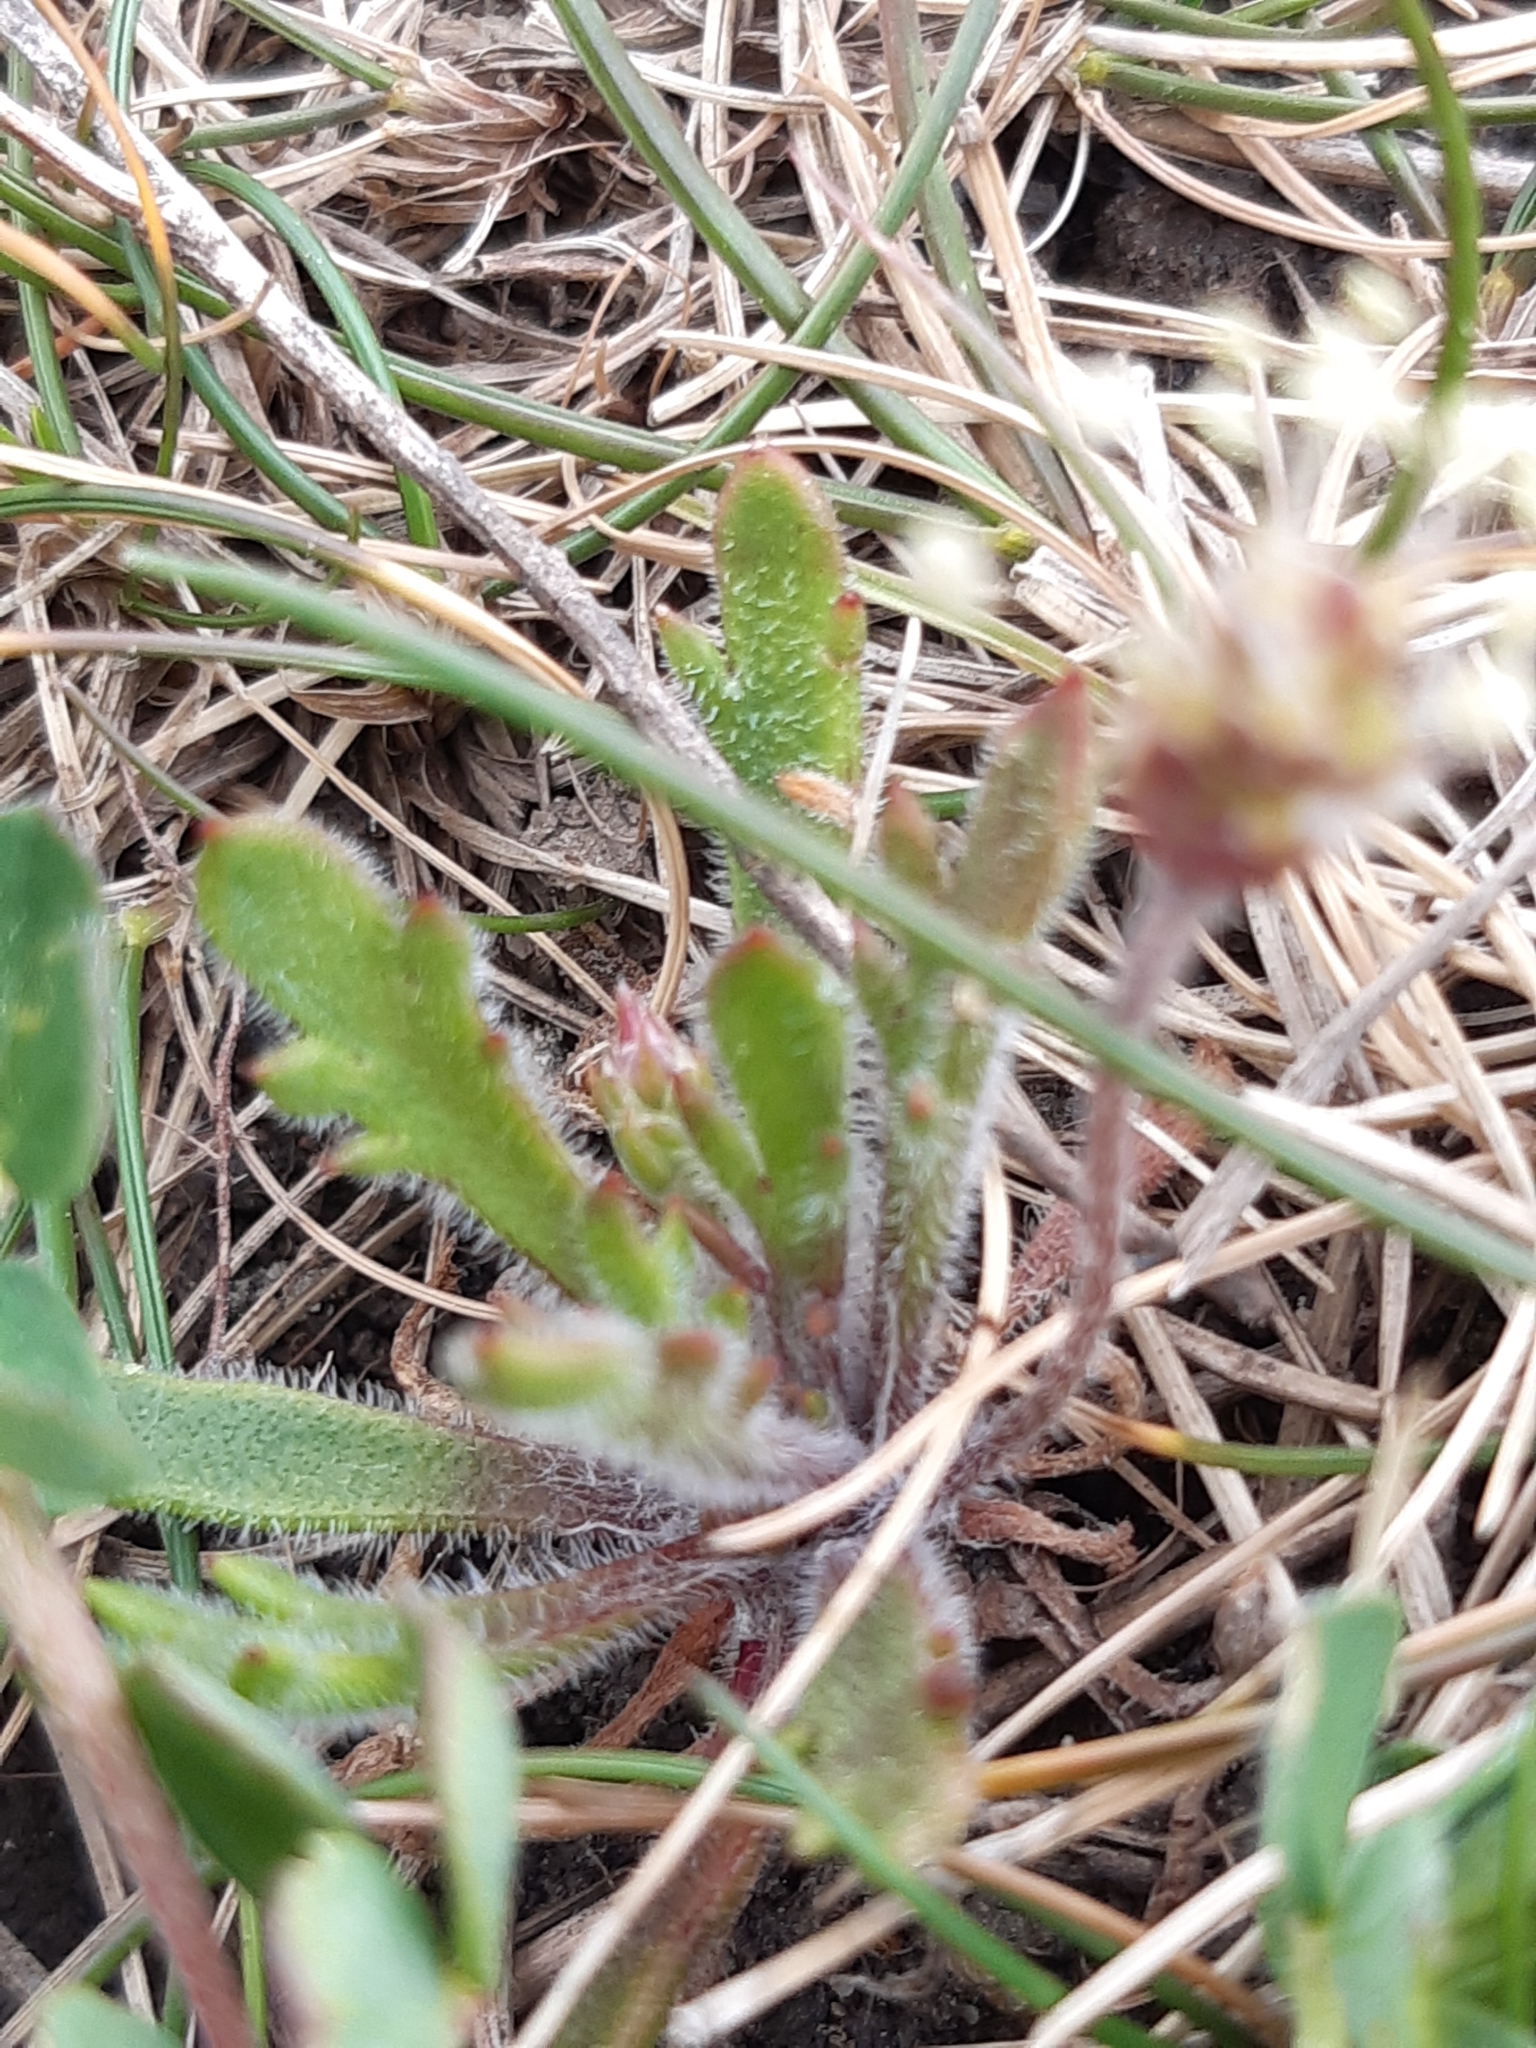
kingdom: Plantae
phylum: Tracheophyta
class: Magnoliopsida
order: Lamiales
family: Plantaginaceae
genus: Plantago
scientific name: Plantago coronopus
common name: Buck's-horn plantain
